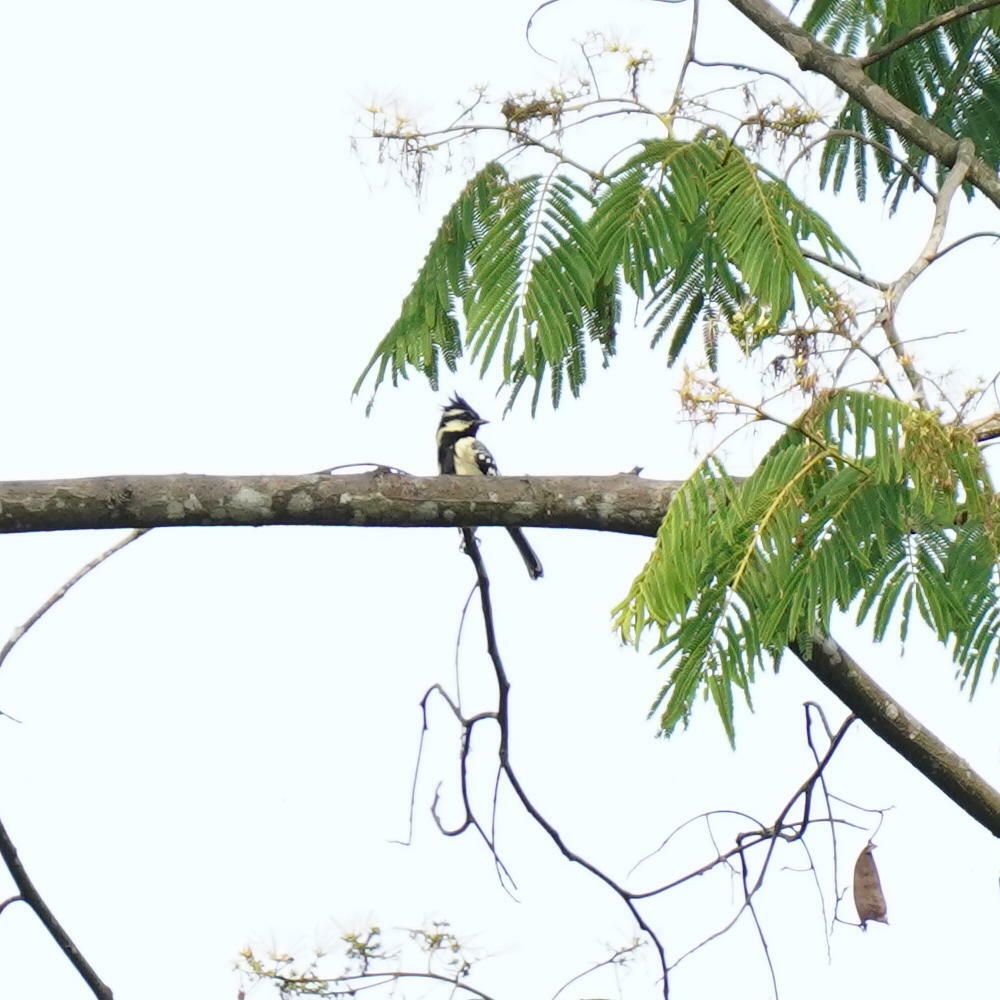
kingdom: Animalia
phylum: Chordata
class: Aves
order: Passeriformes
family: Paridae
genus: Parus
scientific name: Parus aplonotus
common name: Indian black-lored tit
